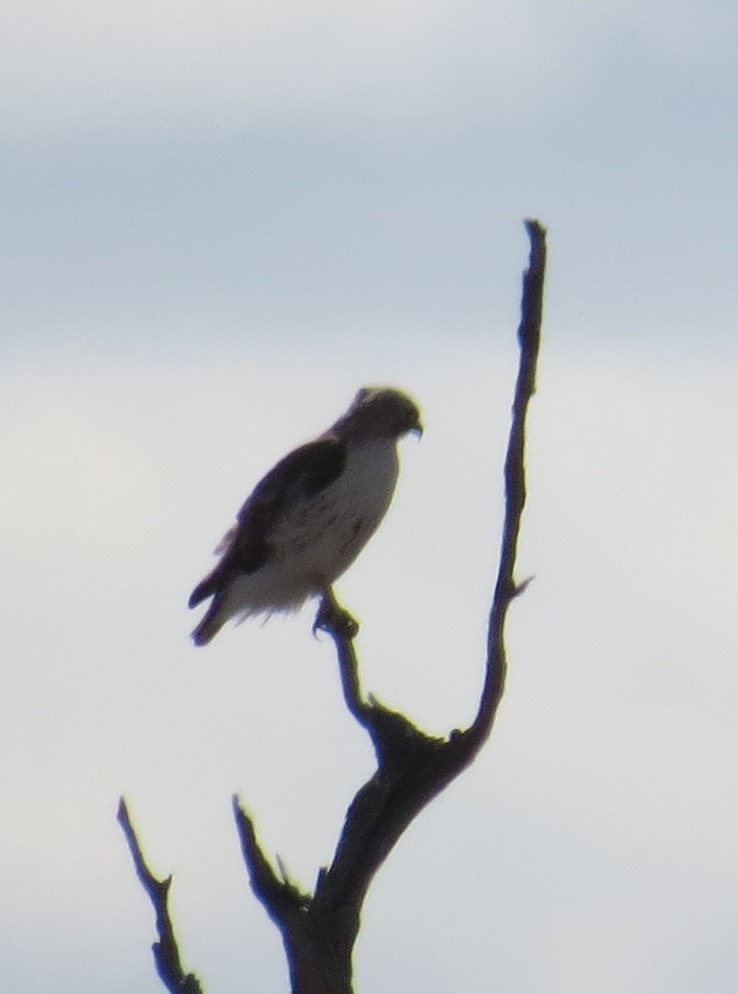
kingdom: Animalia
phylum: Chordata
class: Aves
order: Accipitriformes
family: Accipitridae
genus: Buteo
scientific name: Buteo jamaicensis
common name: Red-tailed hawk
